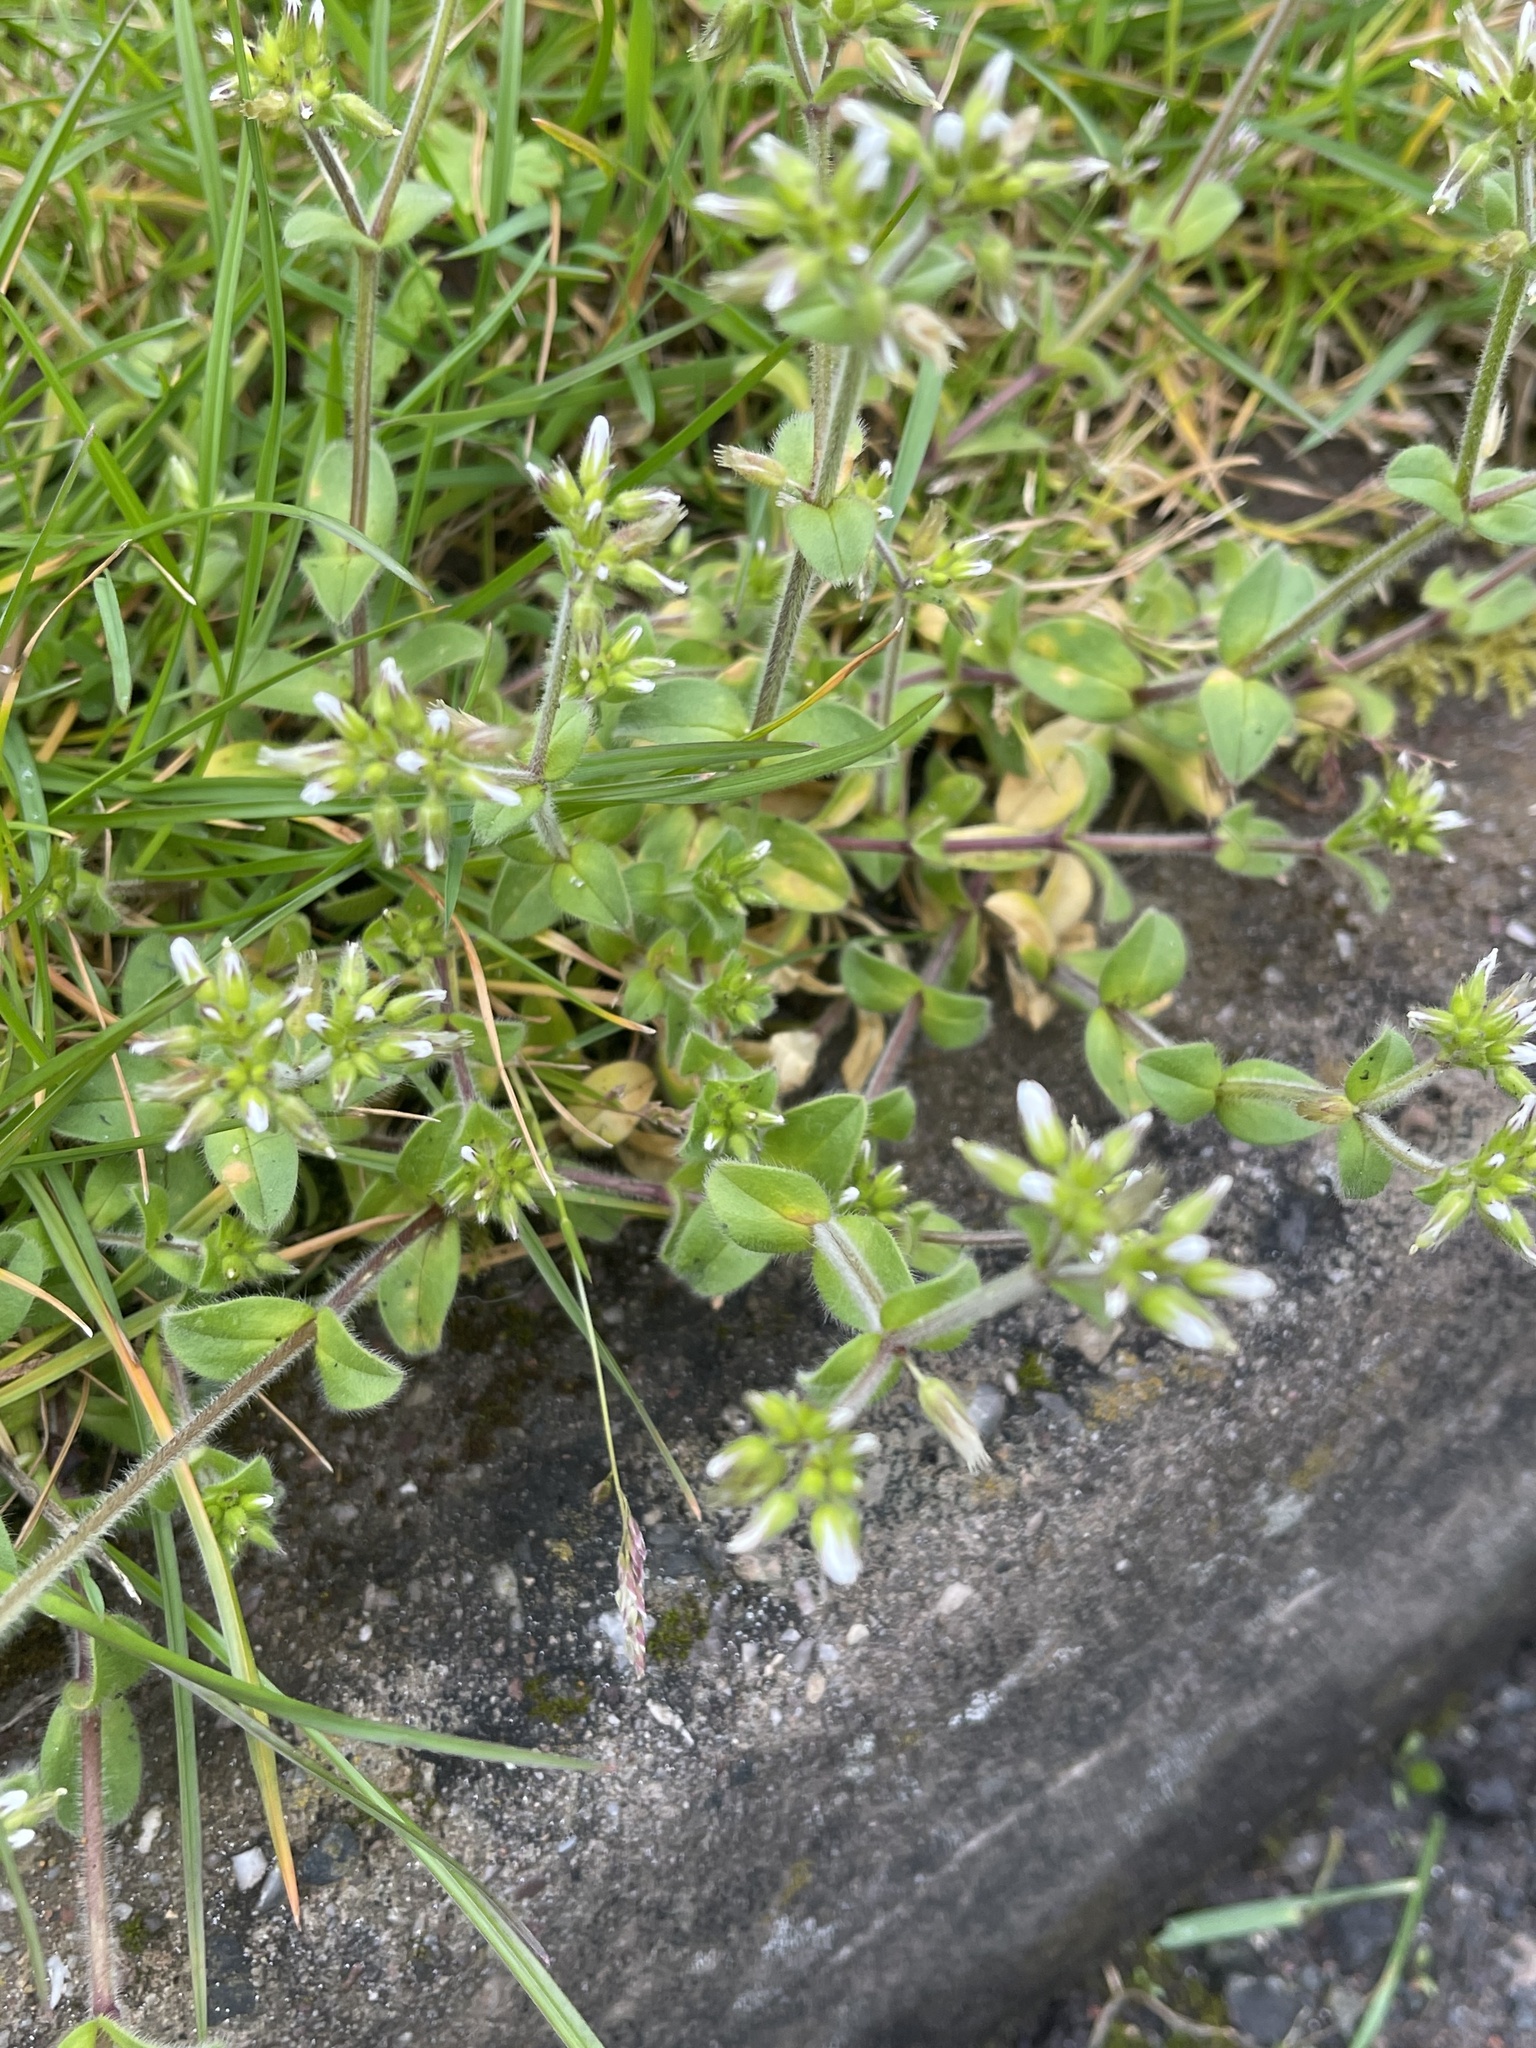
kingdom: Plantae
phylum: Tracheophyta
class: Magnoliopsida
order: Caryophyllales
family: Caryophyllaceae
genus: Cerastium
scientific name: Cerastium glomeratum
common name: Sticky chickweed
